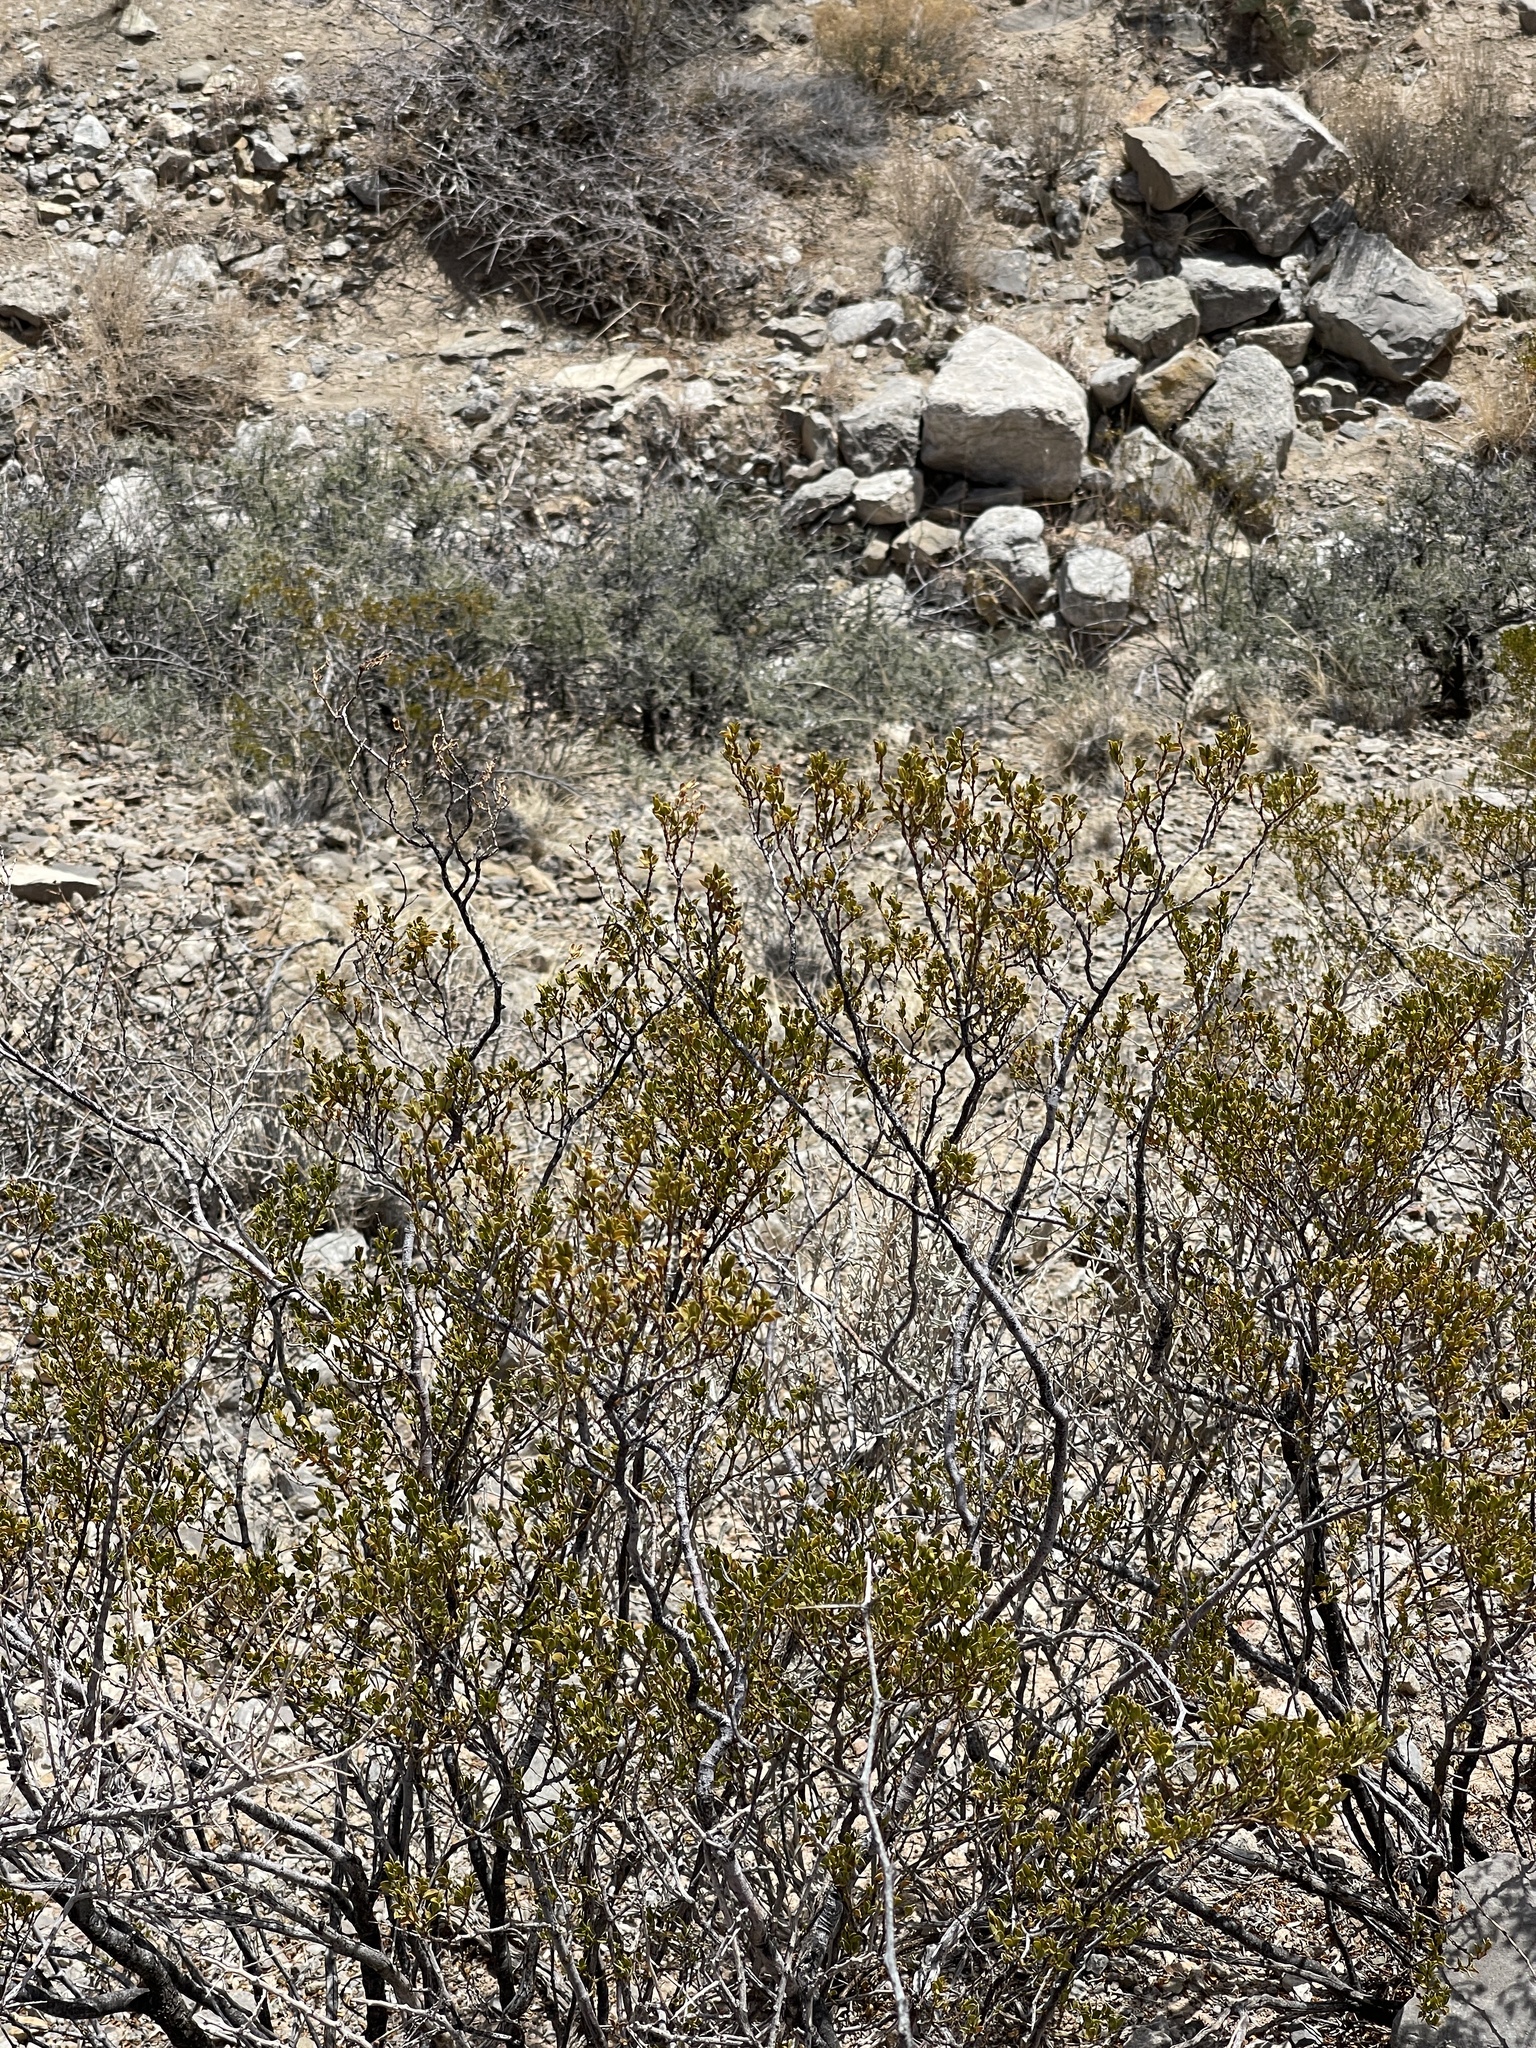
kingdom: Plantae
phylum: Tracheophyta
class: Magnoliopsida
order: Zygophyllales
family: Zygophyllaceae
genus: Larrea
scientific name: Larrea tridentata
